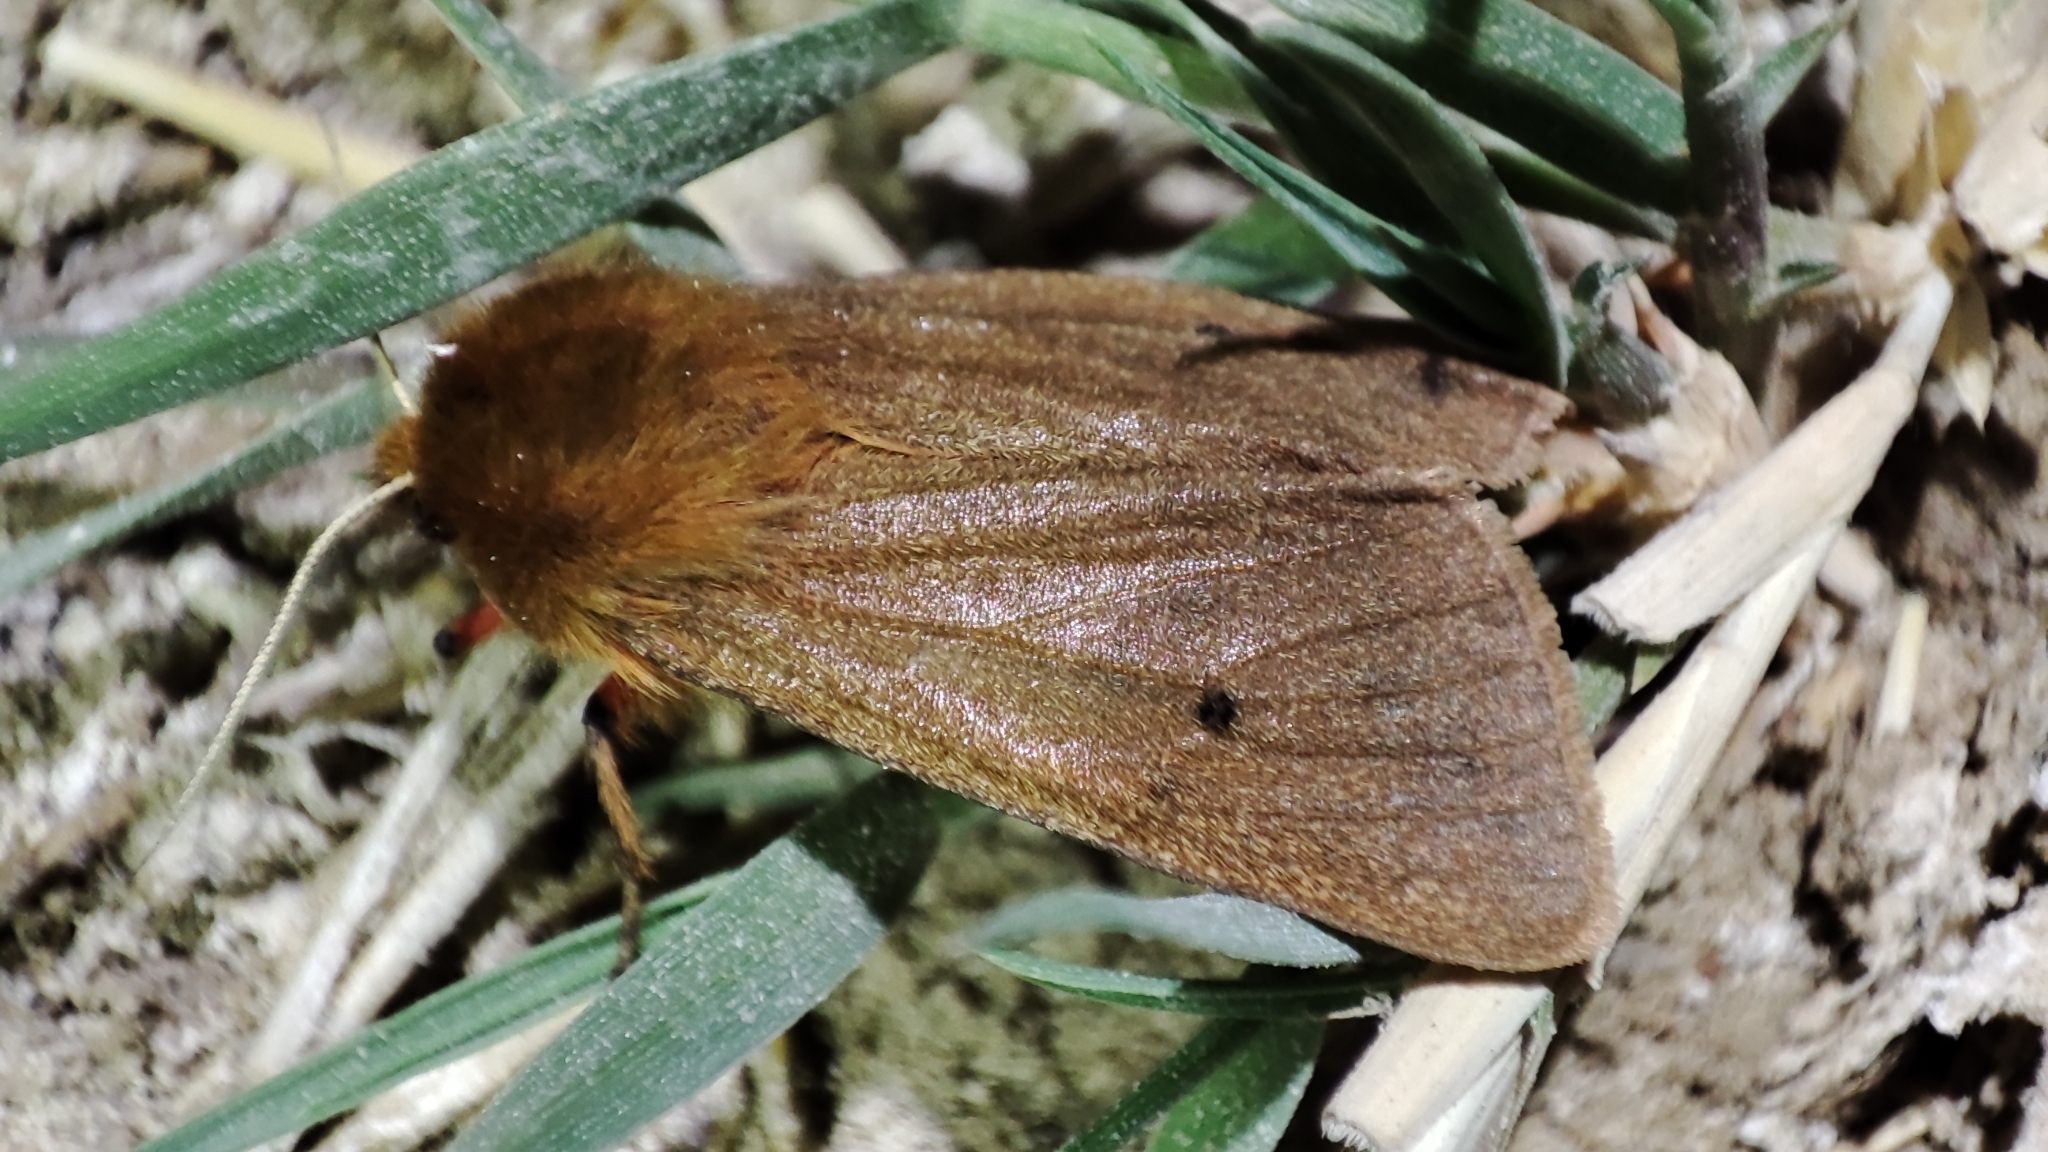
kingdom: Animalia
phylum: Arthropoda
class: Insecta
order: Lepidoptera
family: Erebidae
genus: Phragmatobia
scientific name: Phragmatobia fuliginosa
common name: Ruby tiger
